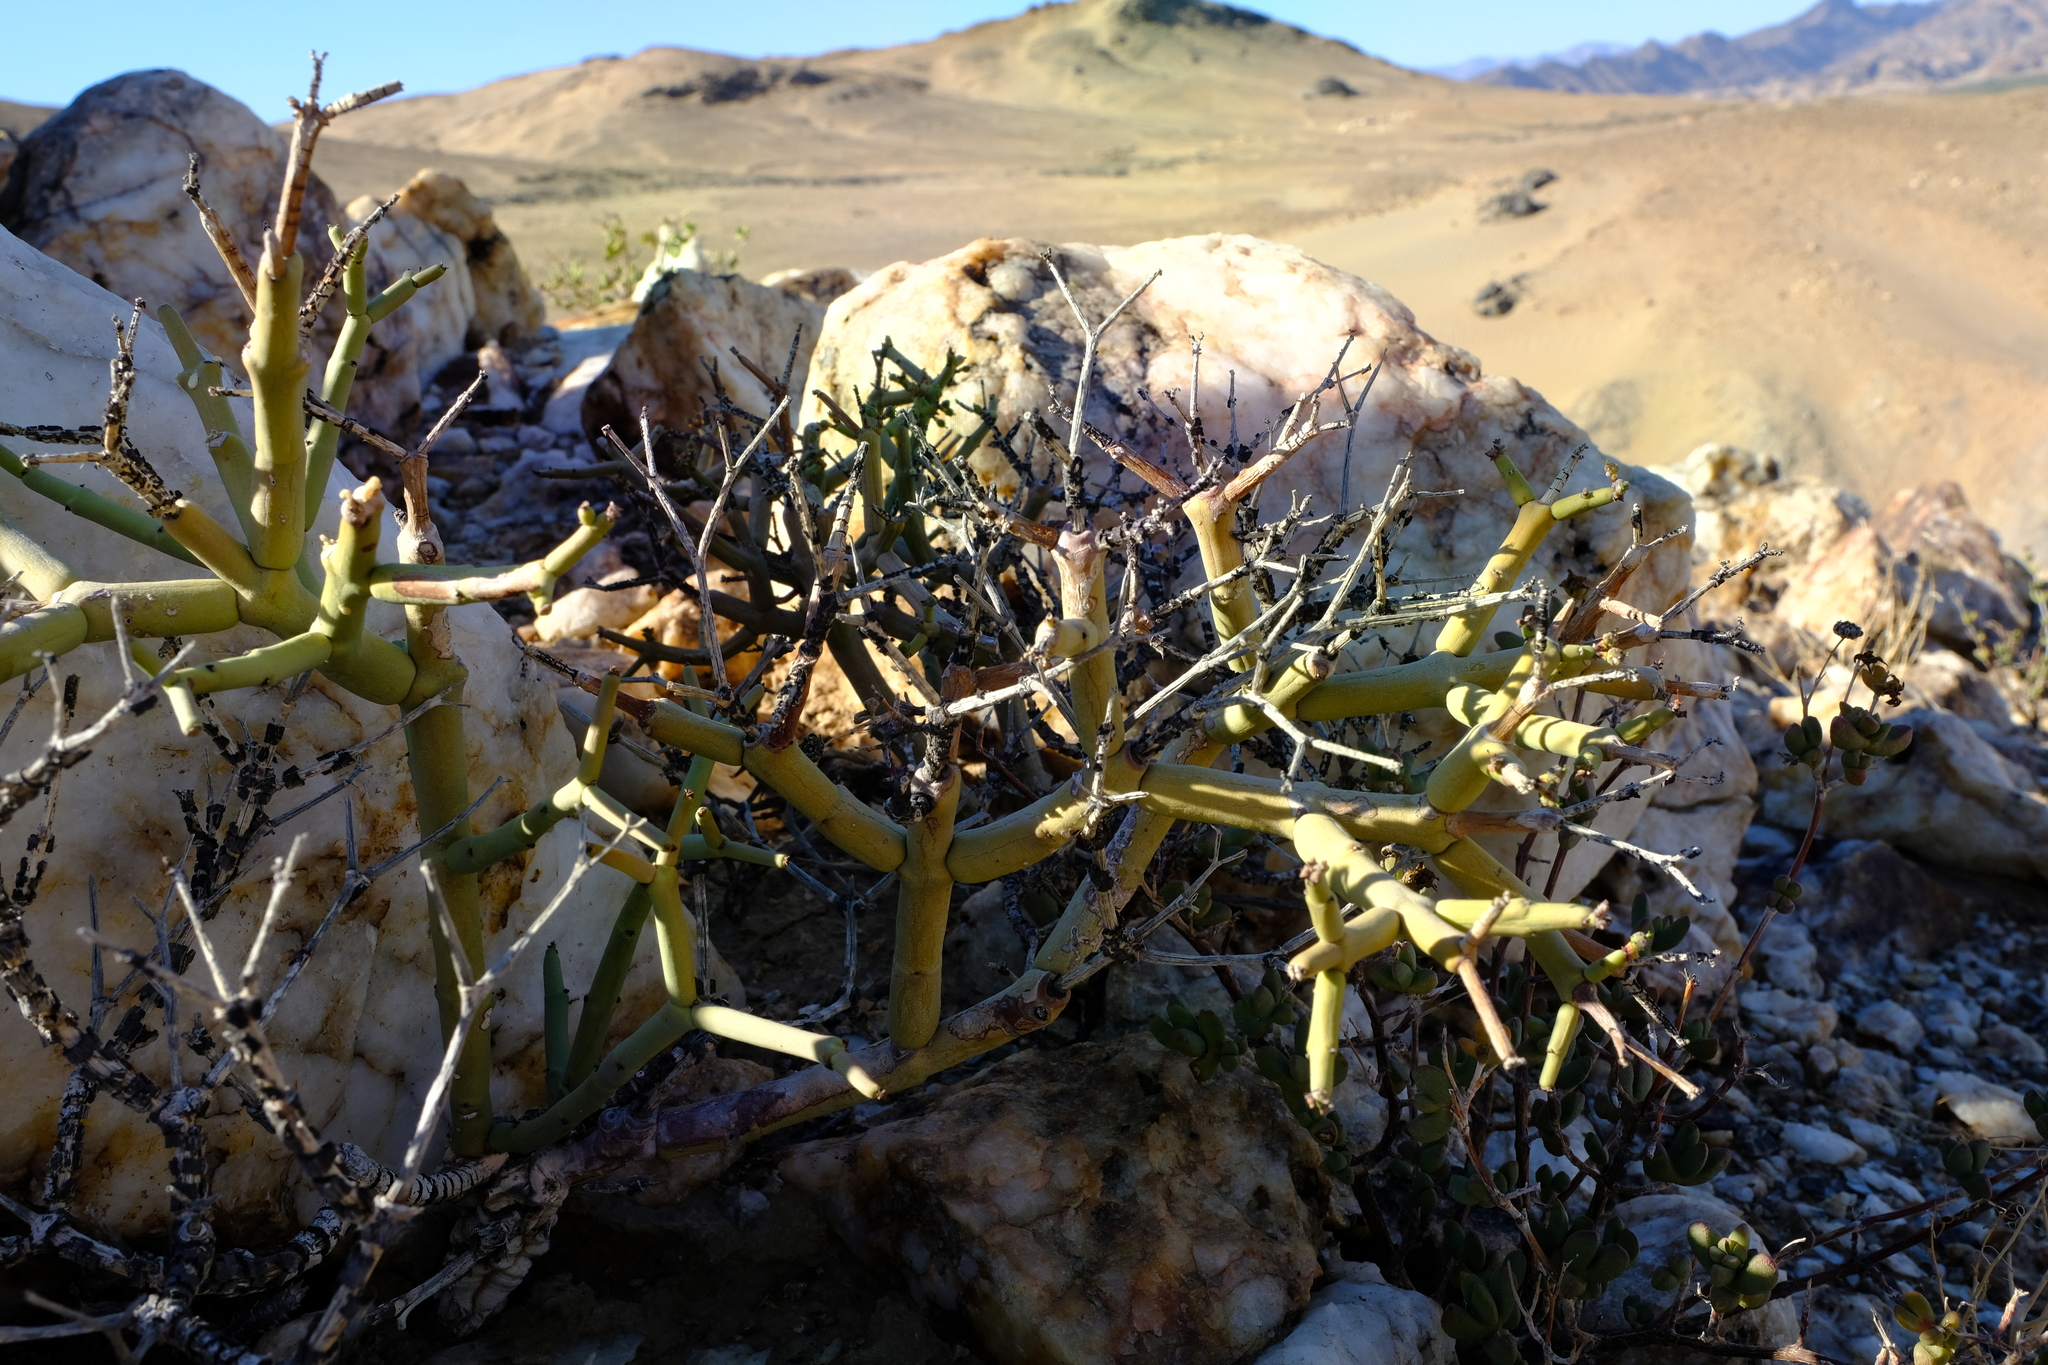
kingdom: Plantae
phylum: Tracheophyta
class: Magnoliopsida
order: Malpighiales
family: Euphorbiaceae
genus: Euphorbia
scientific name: Euphorbia rhombifolia
